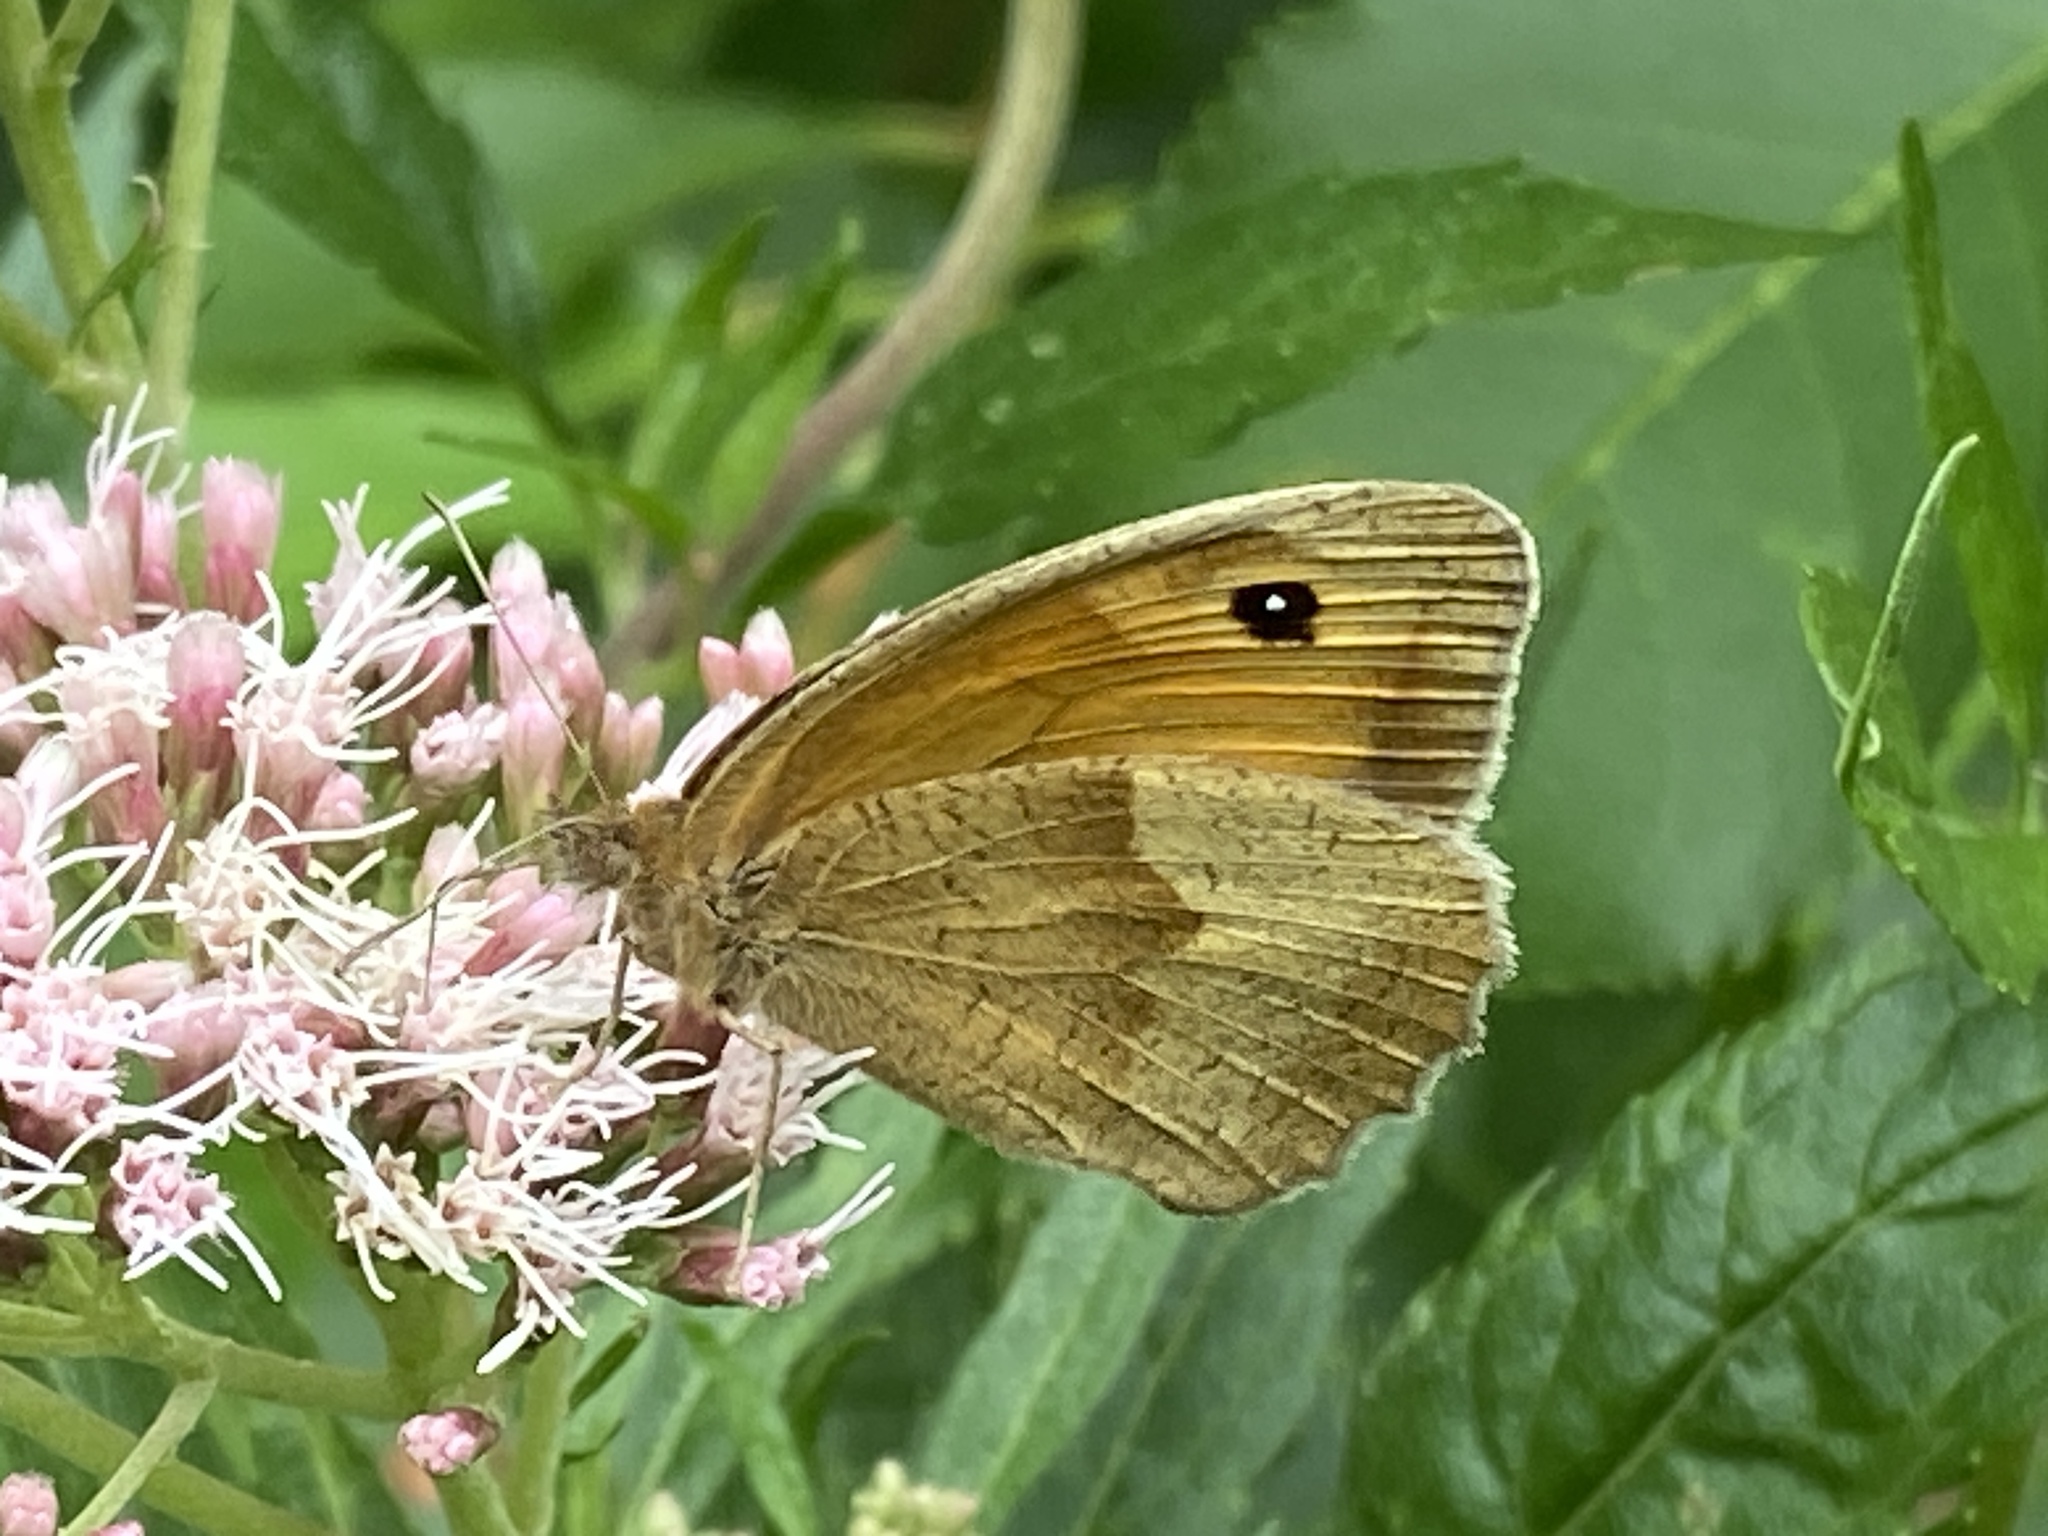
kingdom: Animalia
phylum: Arthropoda
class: Insecta
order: Lepidoptera
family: Nymphalidae
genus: Maniola
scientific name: Maniola jurtina
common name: Meadow brown
